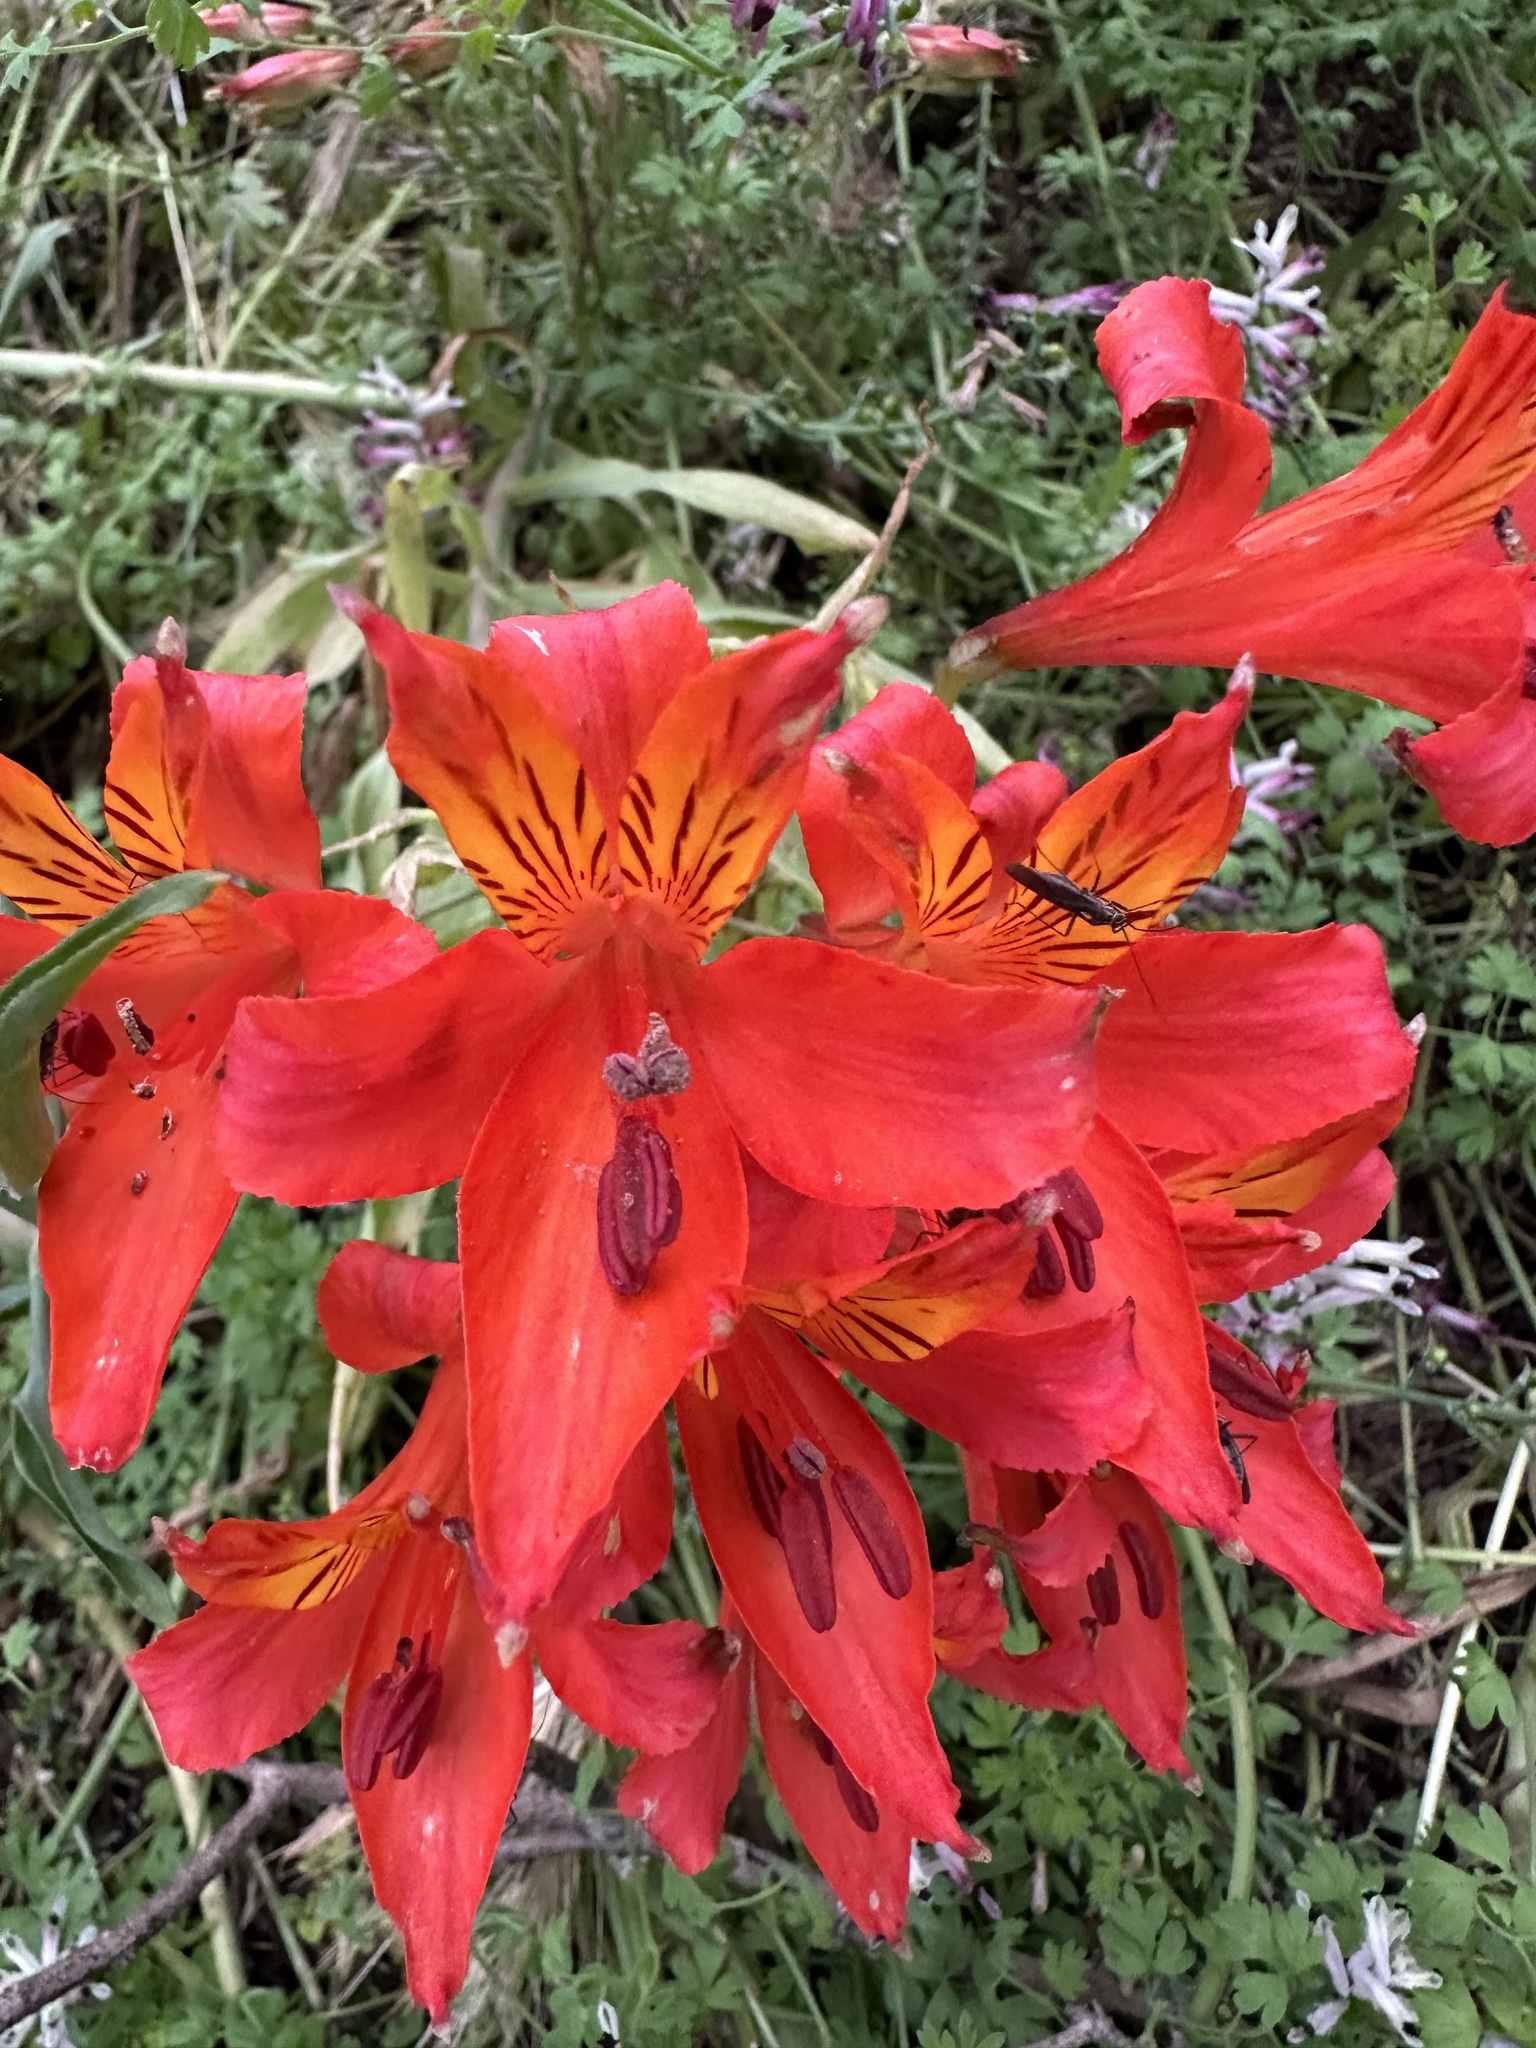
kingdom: Plantae
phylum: Tracheophyta
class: Liliopsida
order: Liliales
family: Alstroemeriaceae
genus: Alstroemeria
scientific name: Alstroemeria ligtu
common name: St. martin's-flower
